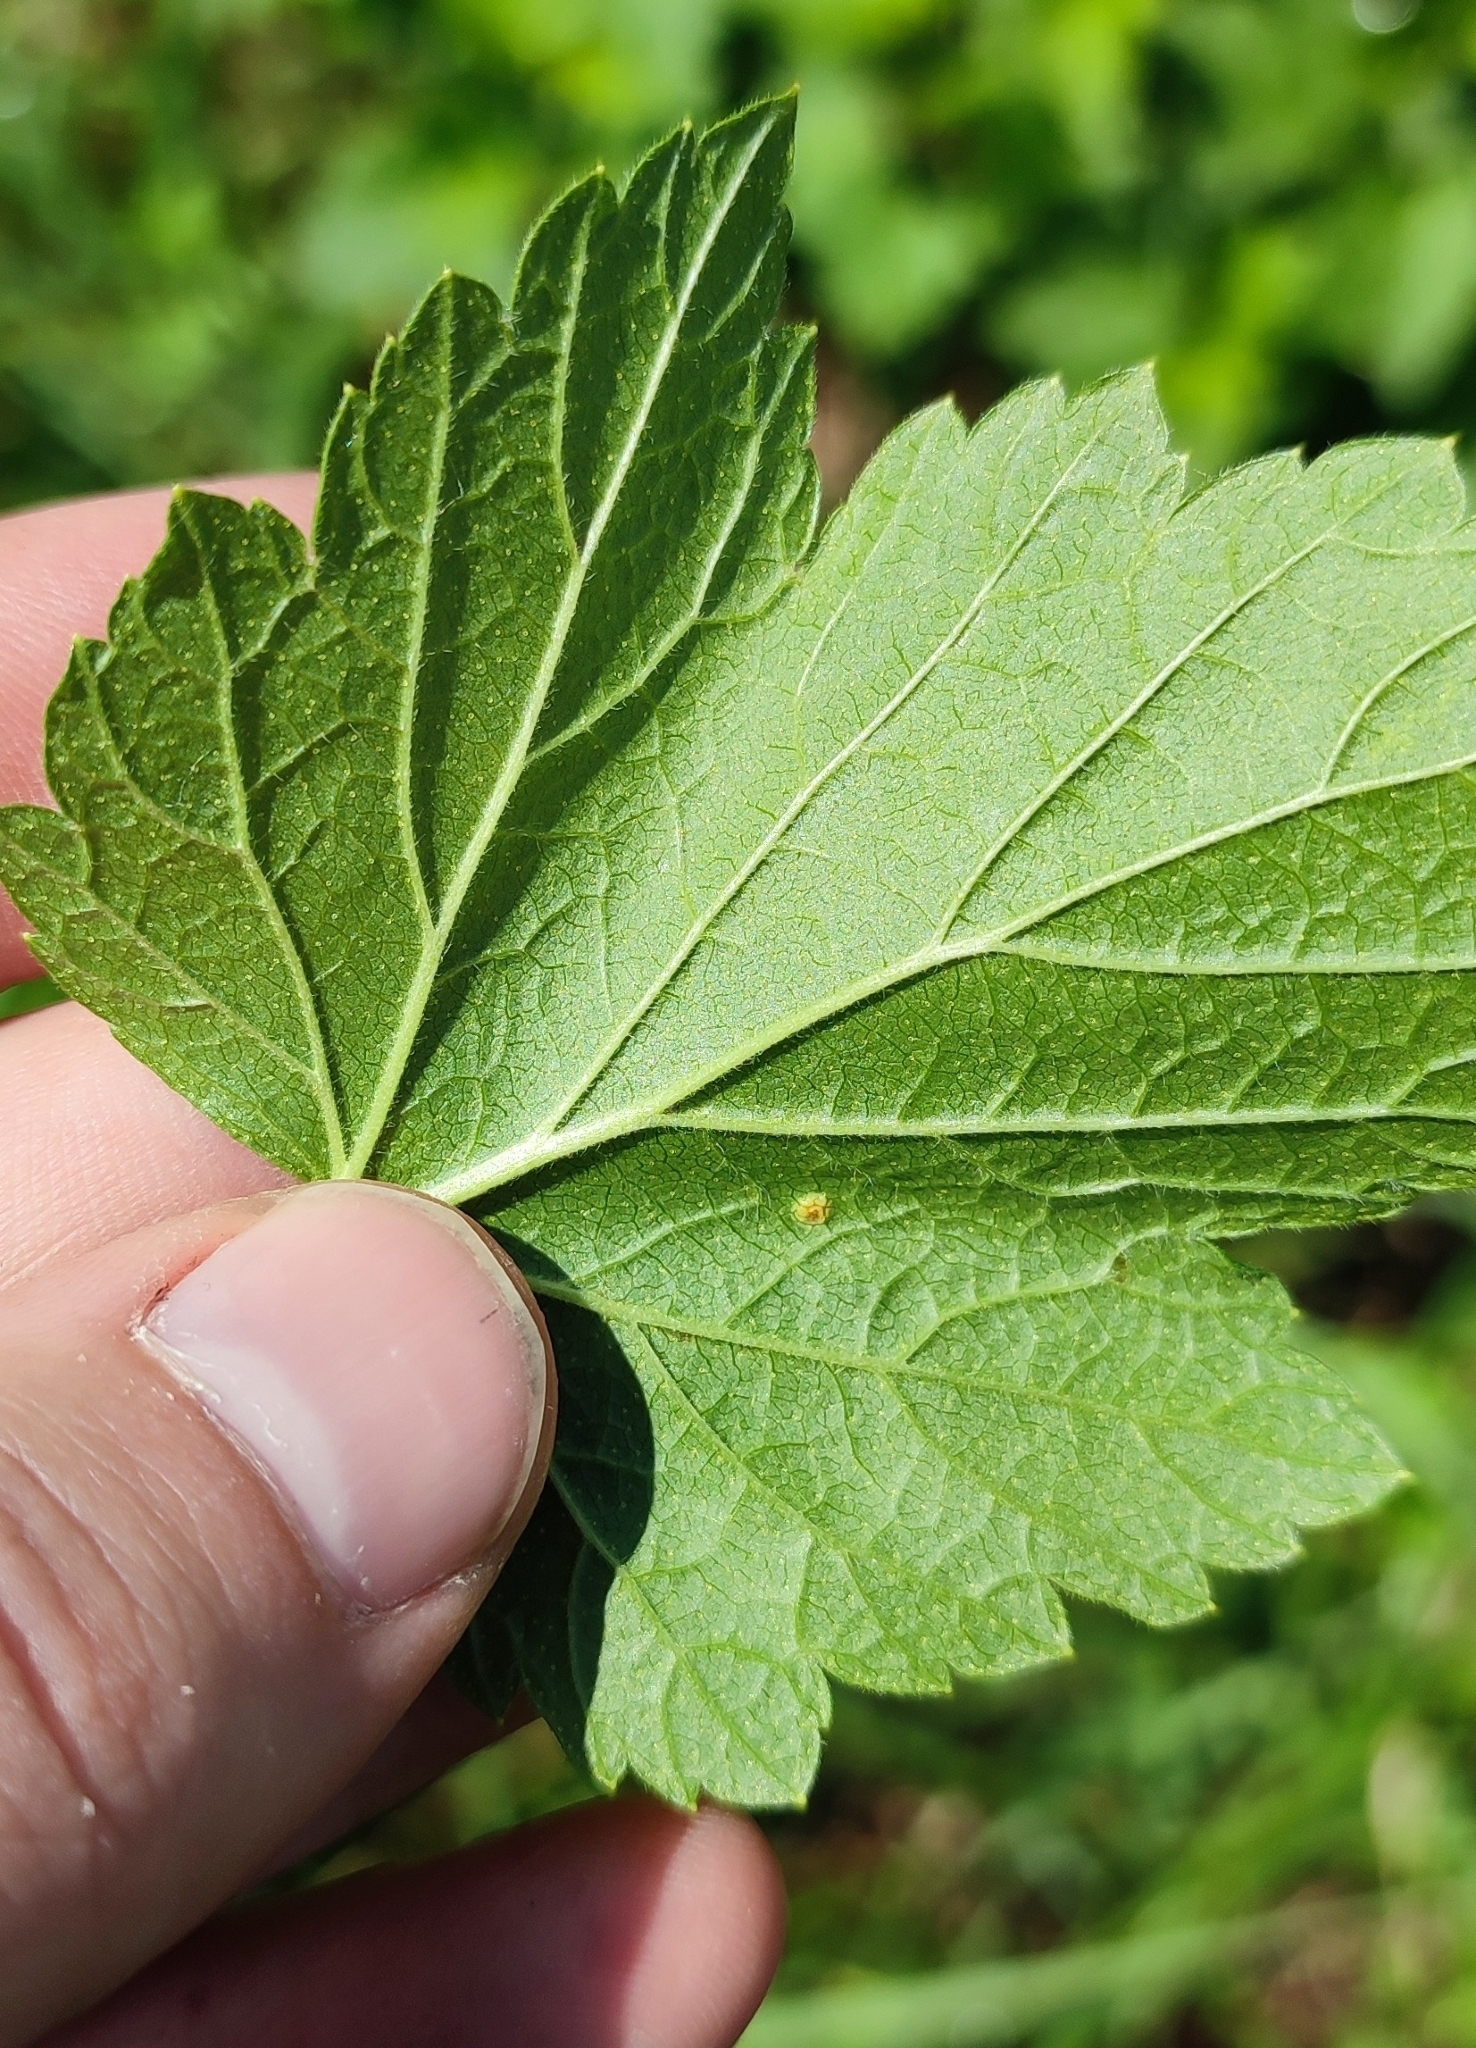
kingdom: Plantae
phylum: Tracheophyta
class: Magnoliopsida
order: Saxifragales
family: Grossulariaceae
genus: Ribes
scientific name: Ribes nigrum
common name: Black currant
